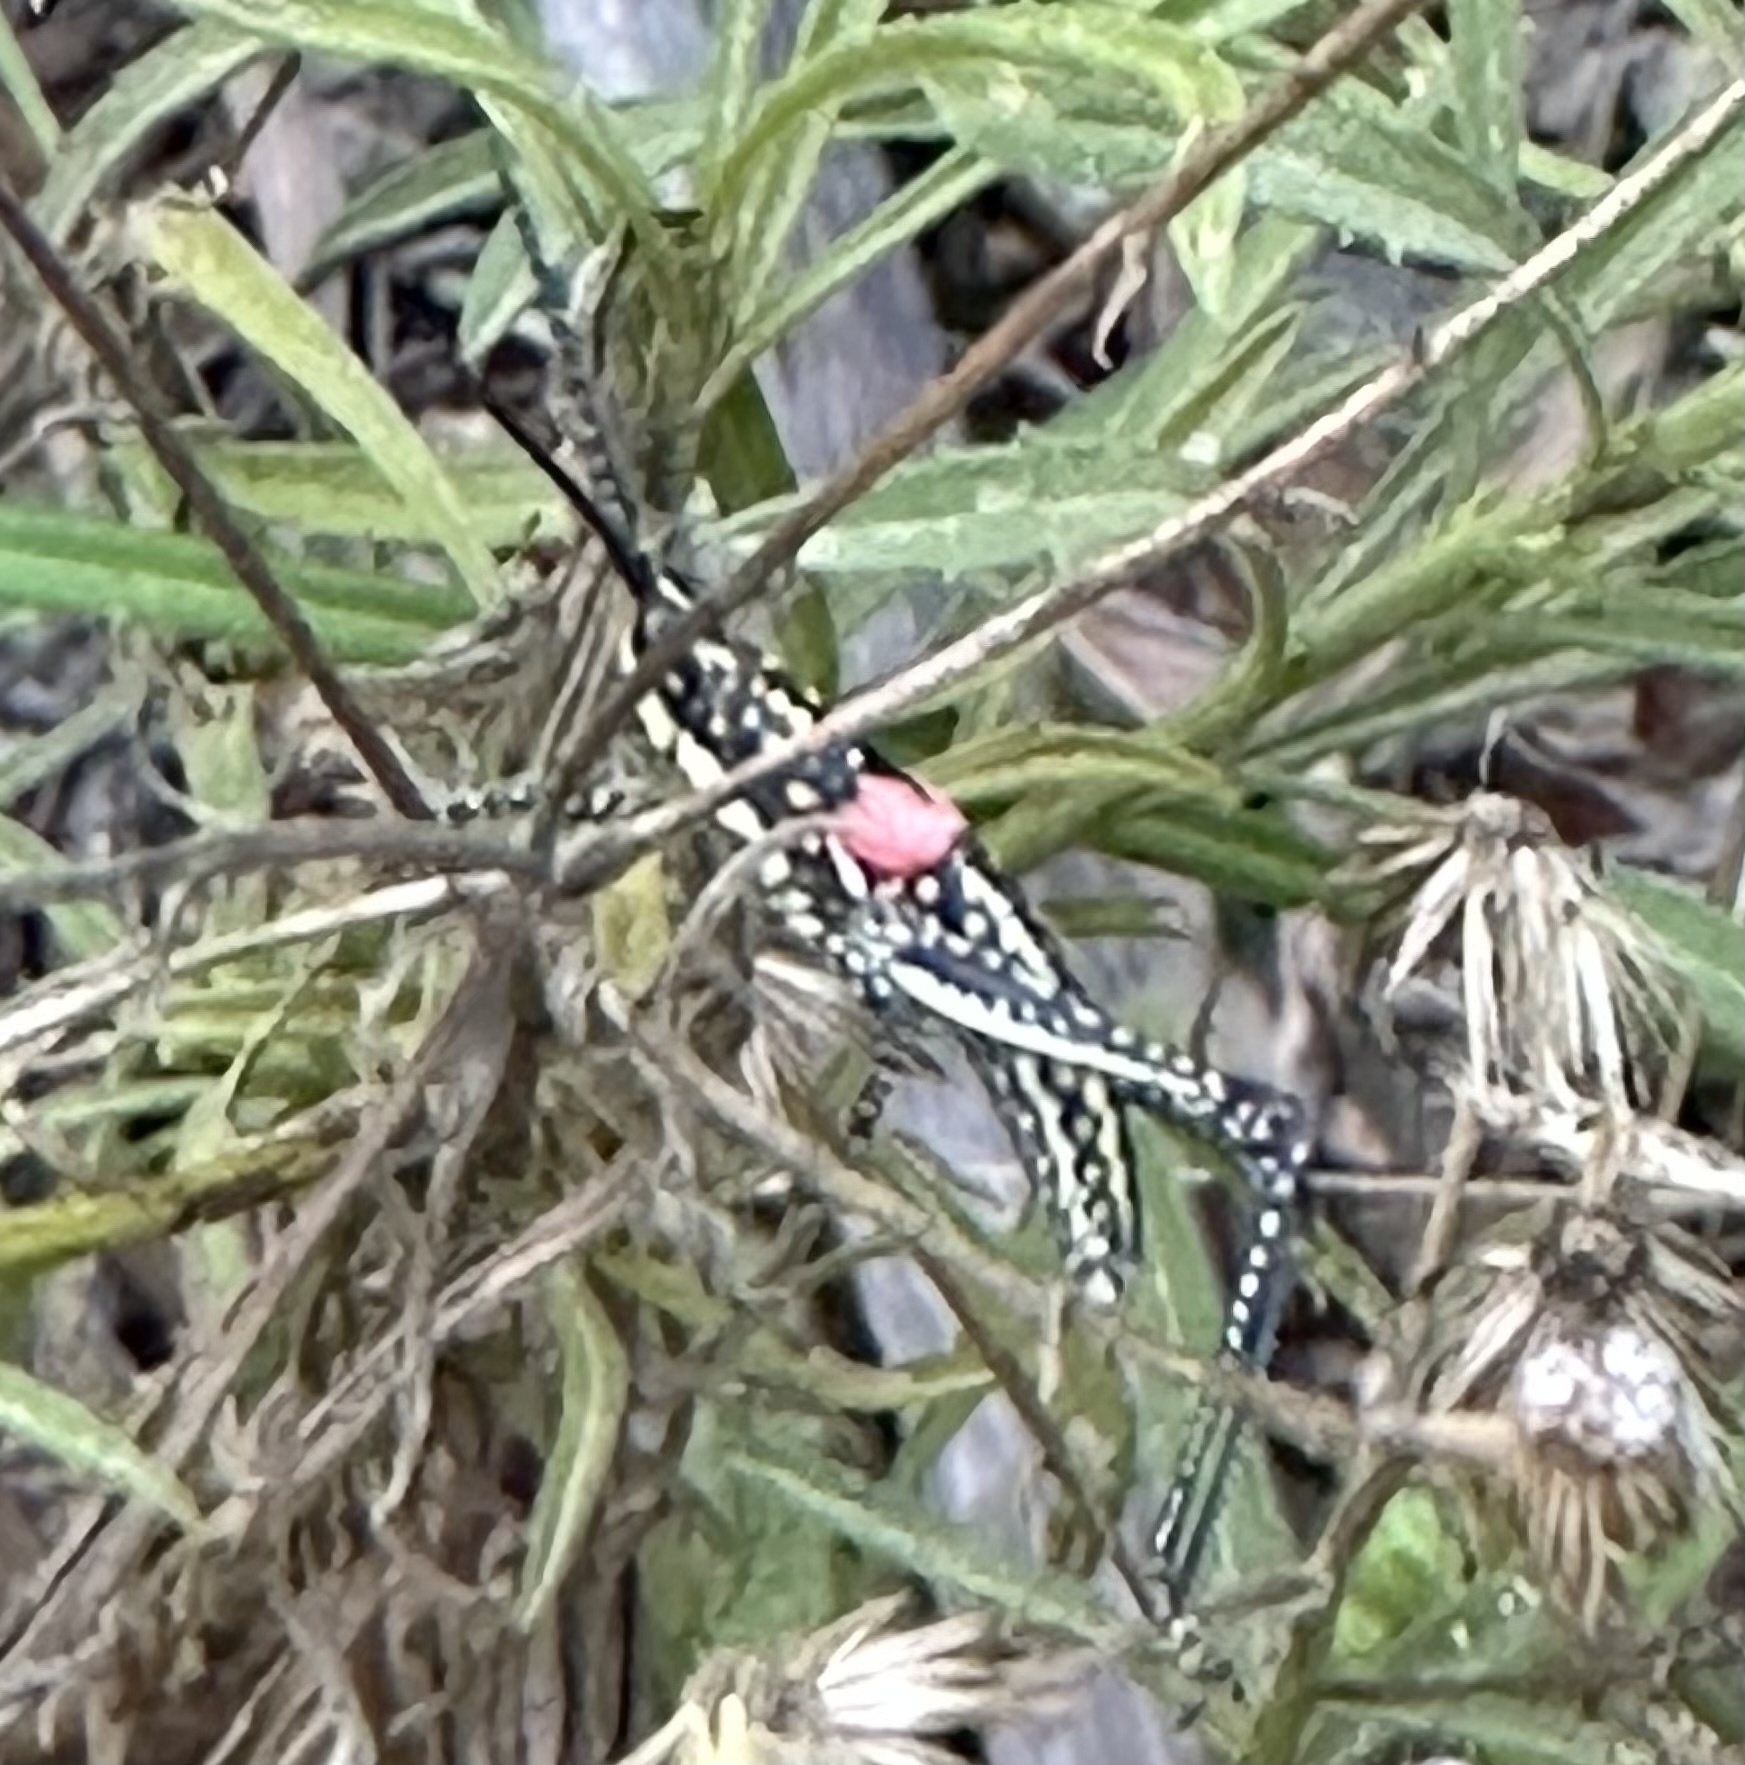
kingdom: Animalia
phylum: Arthropoda
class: Insecta
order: Orthoptera
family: Pyrgomorphidae
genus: Greyacris
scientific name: Greyacris profundesulcata
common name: Queensland spotted pyrgomorph
